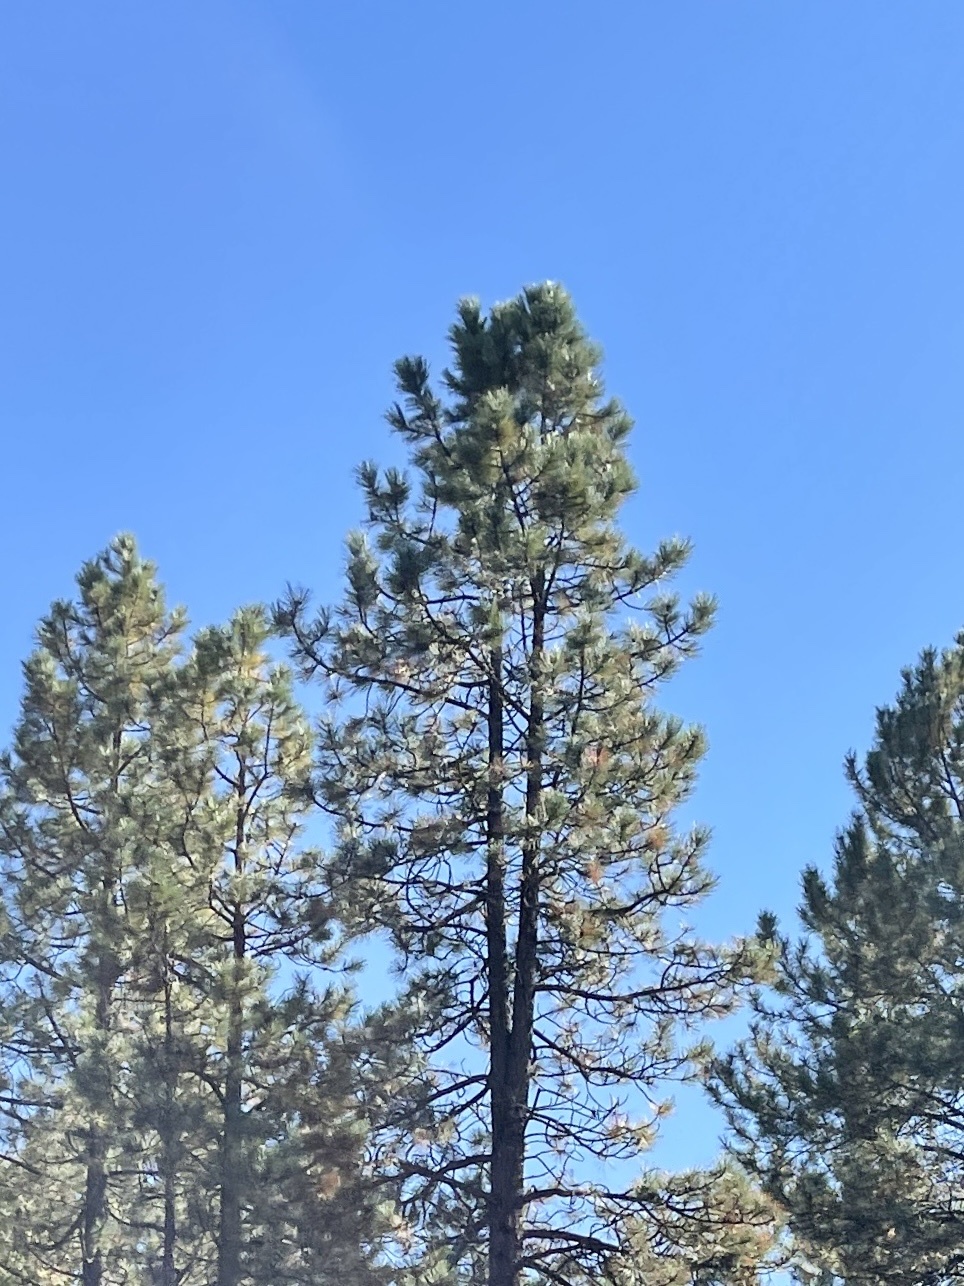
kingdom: Plantae
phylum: Tracheophyta
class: Pinopsida
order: Pinales
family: Pinaceae
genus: Pinus
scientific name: Pinus ponderosa
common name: Western yellow-pine
